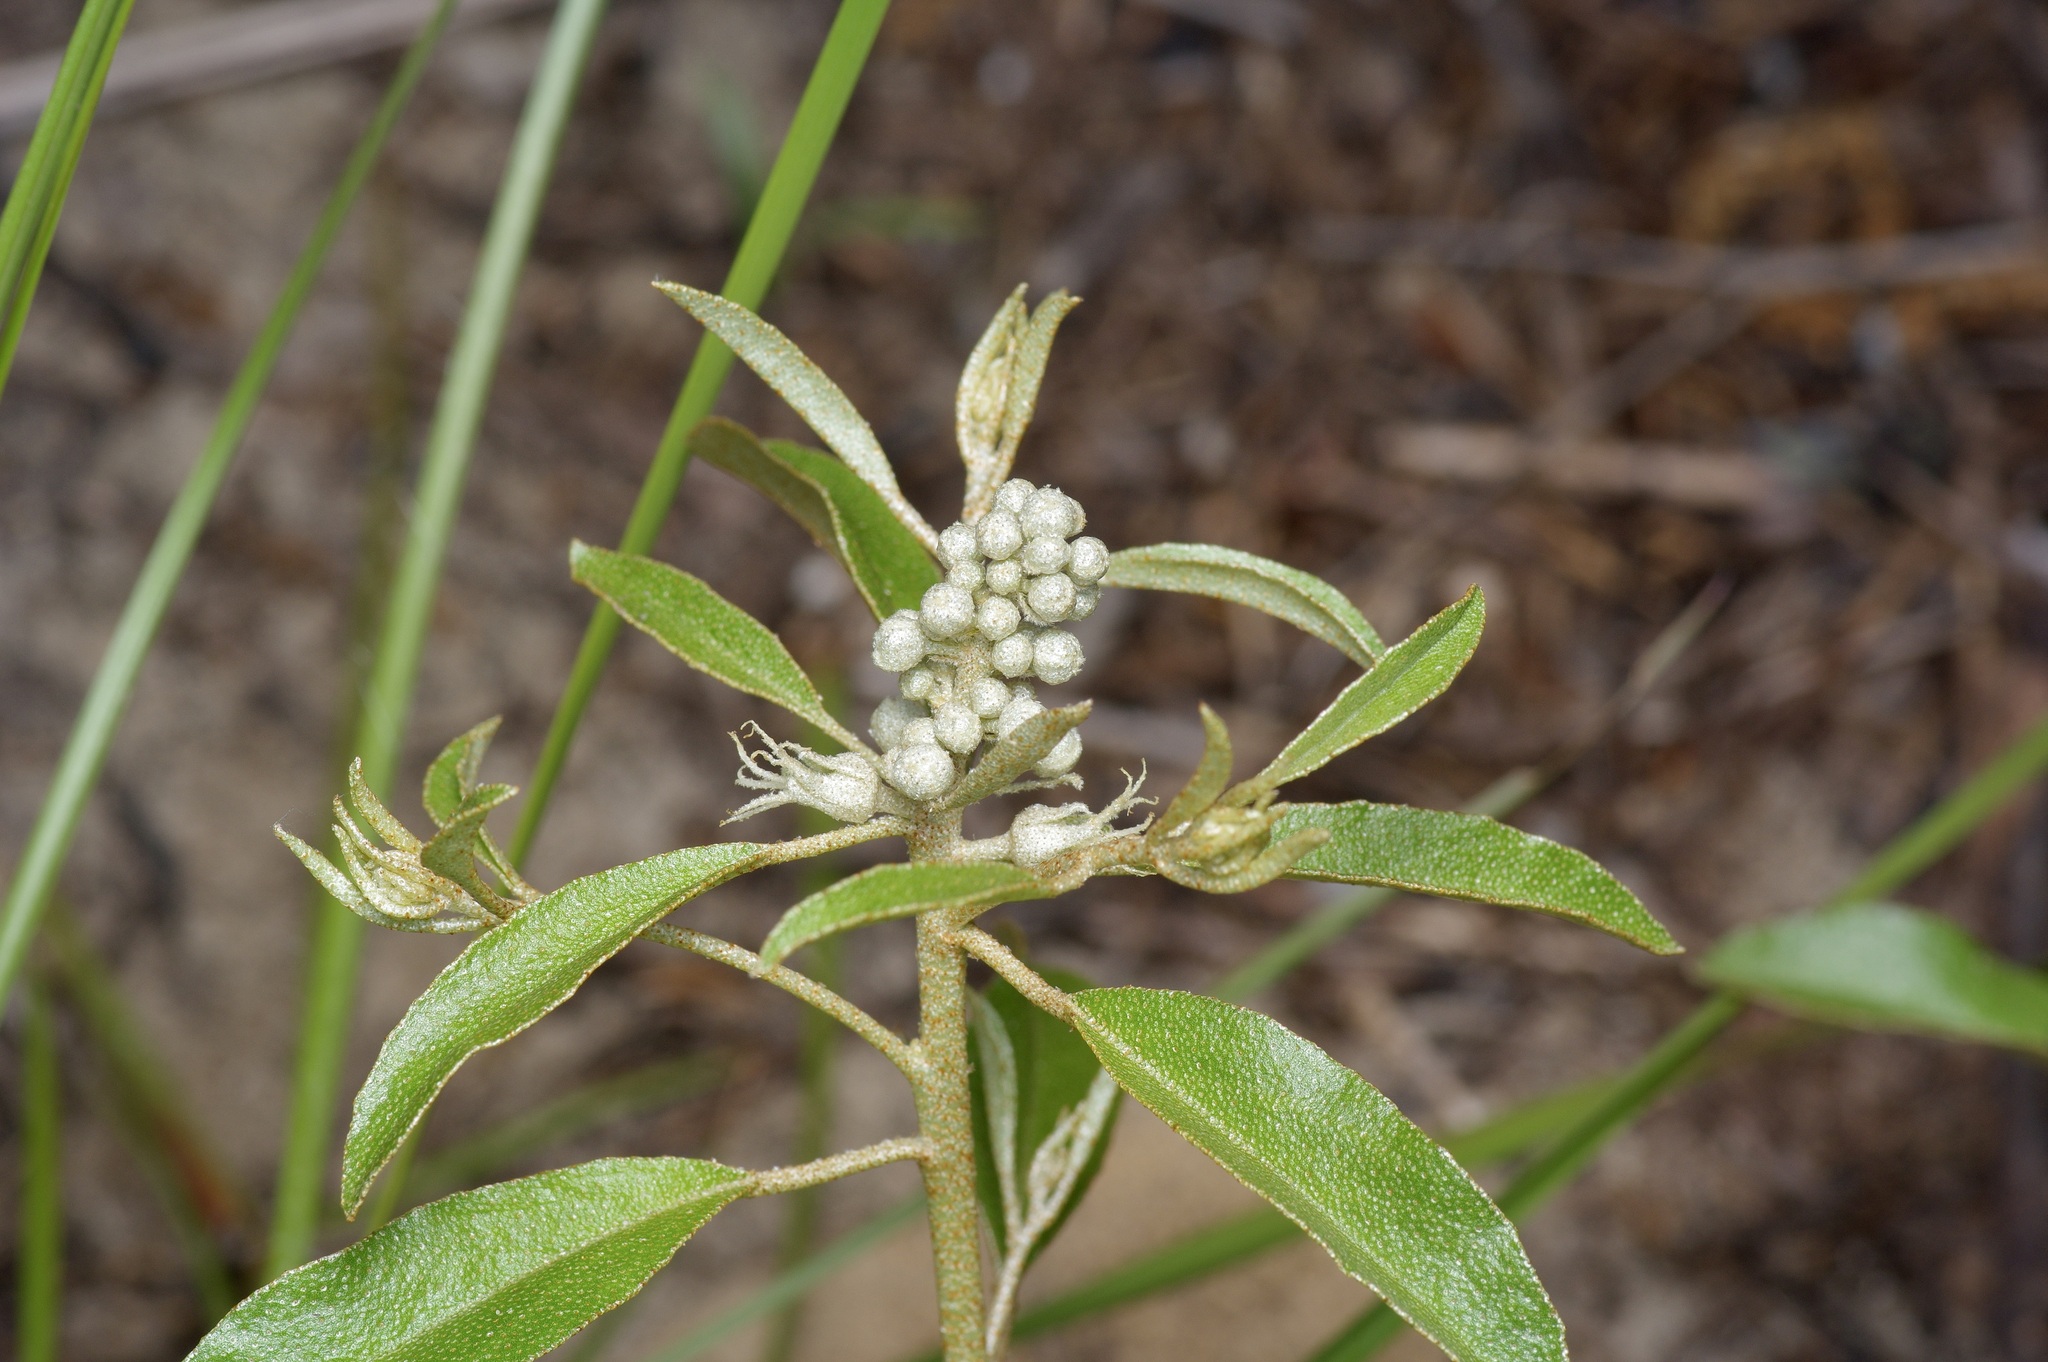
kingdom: Plantae
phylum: Tracheophyta
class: Magnoliopsida
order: Malpighiales
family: Euphorbiaceae
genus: Croton
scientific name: Croton argyranthemus
